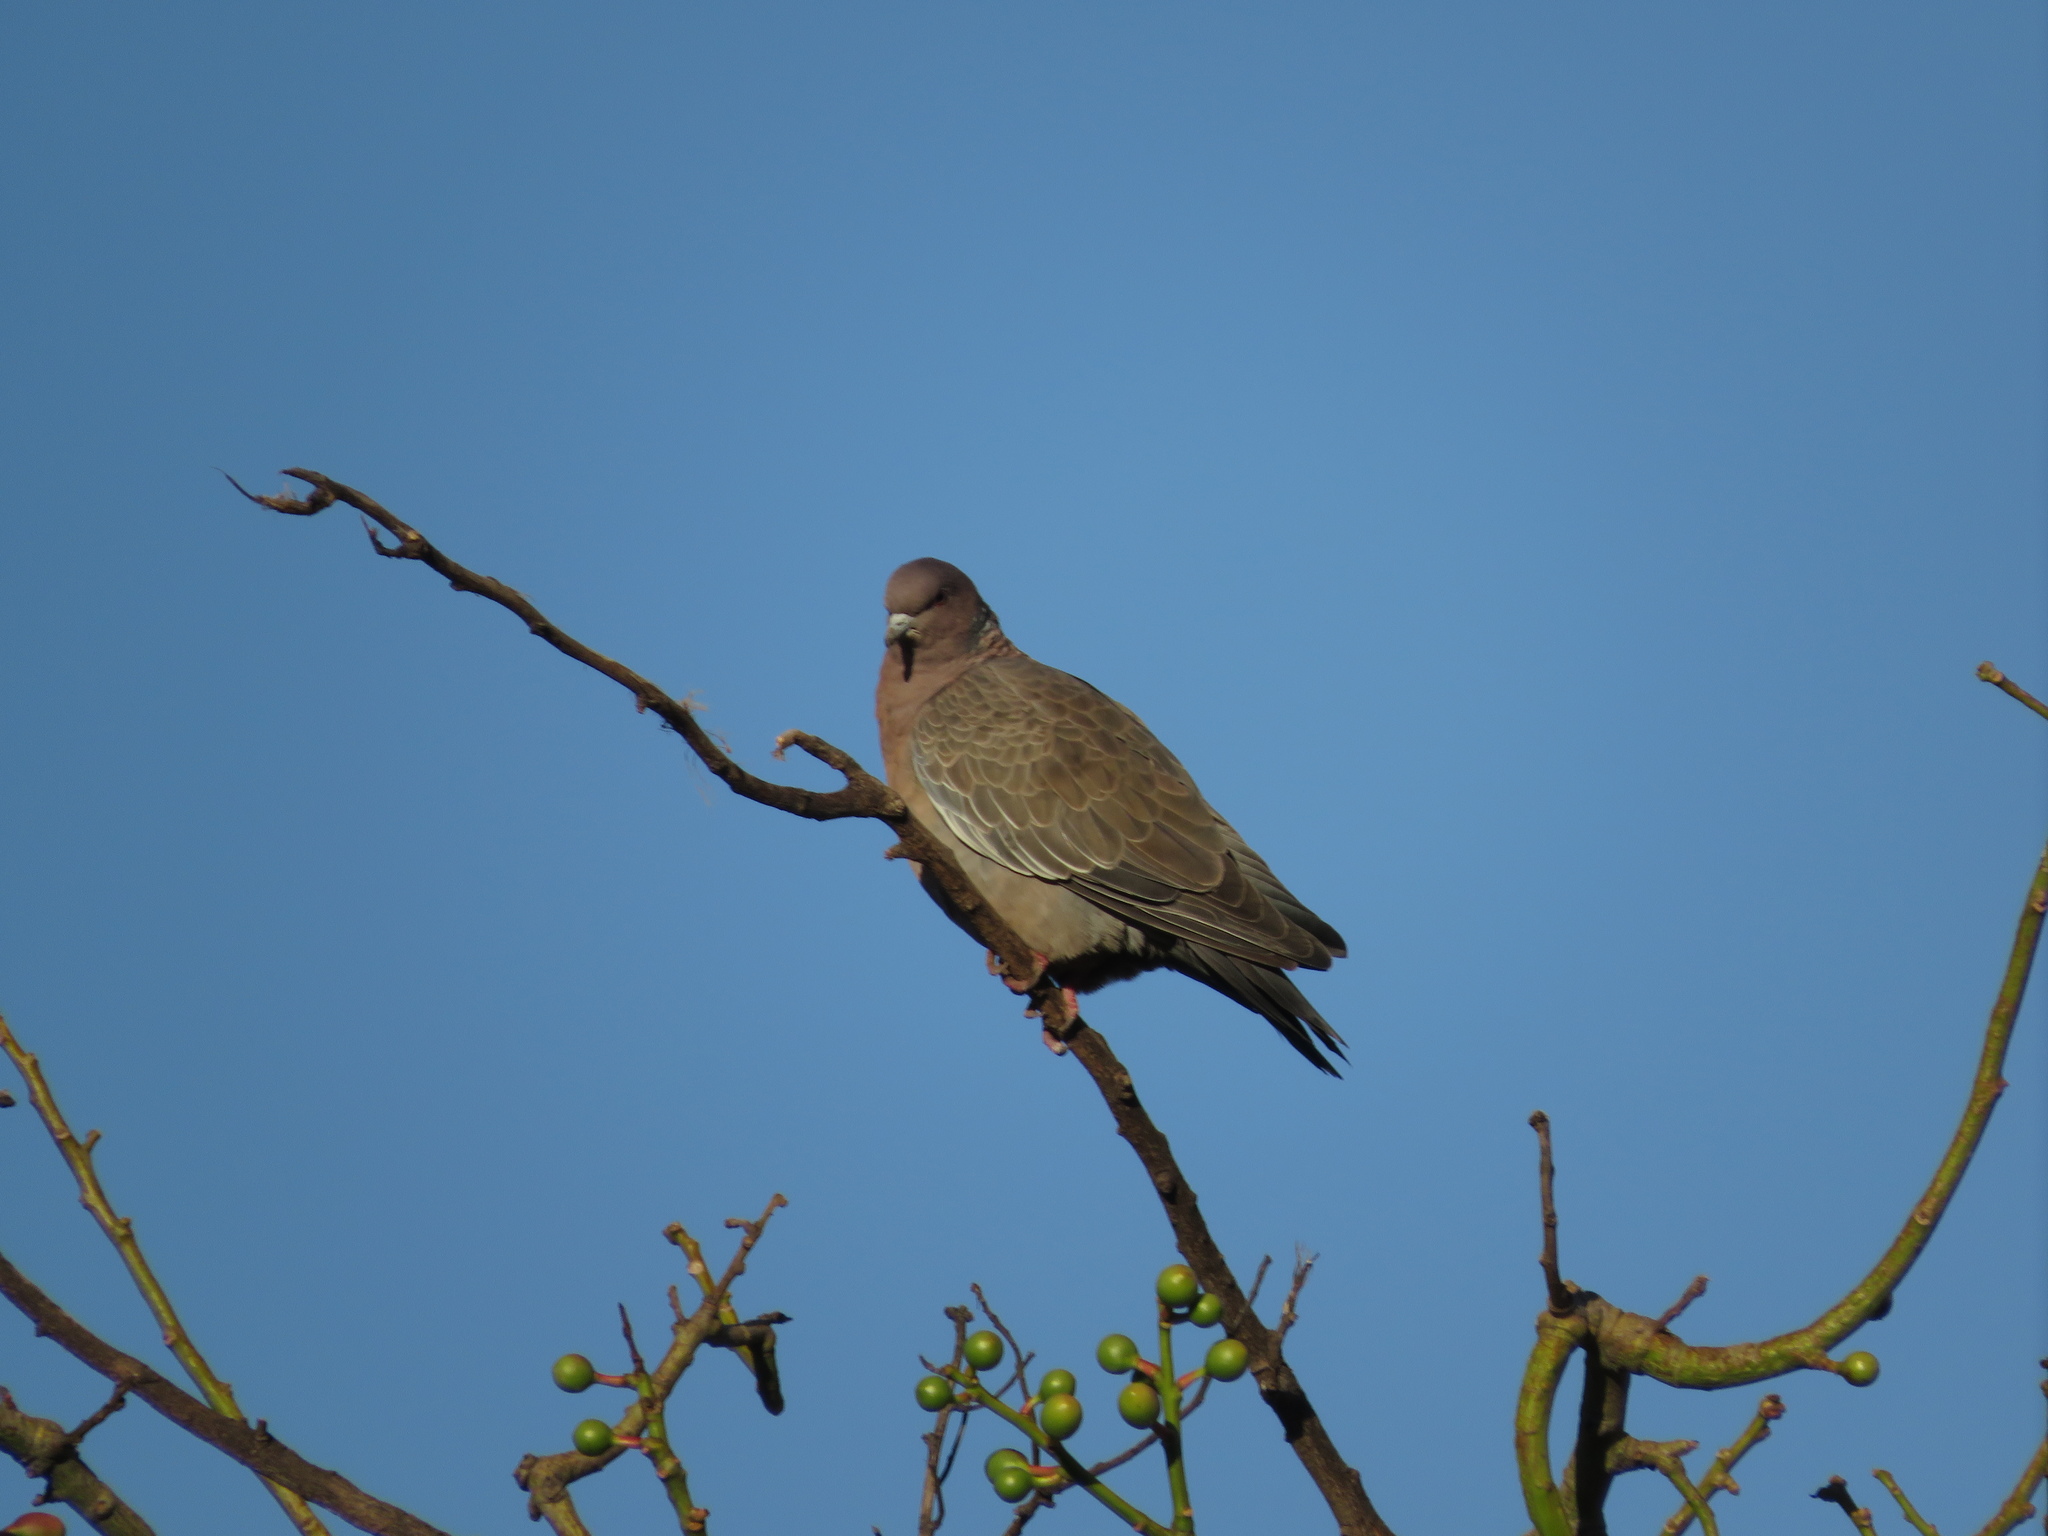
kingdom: Animalia
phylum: Chordata
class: Aves
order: Columbiformes
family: Columbidae
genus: Patagioenas
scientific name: Patagioenas picazuro
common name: Picazuro pigeon
